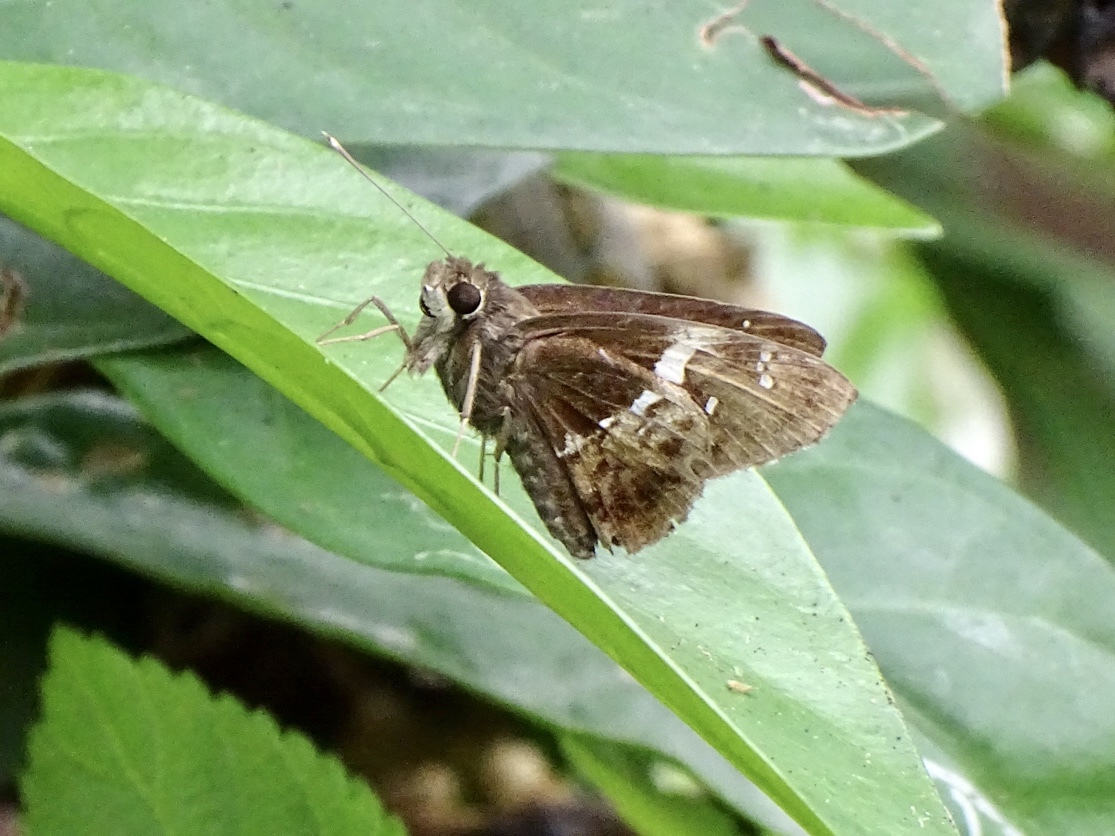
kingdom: Animalia
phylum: Arthropoda
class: Insecta
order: Lepidoptera
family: Hesperiidae
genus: Hyarotis
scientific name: Hyarotis adrastus
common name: Tree flitter
